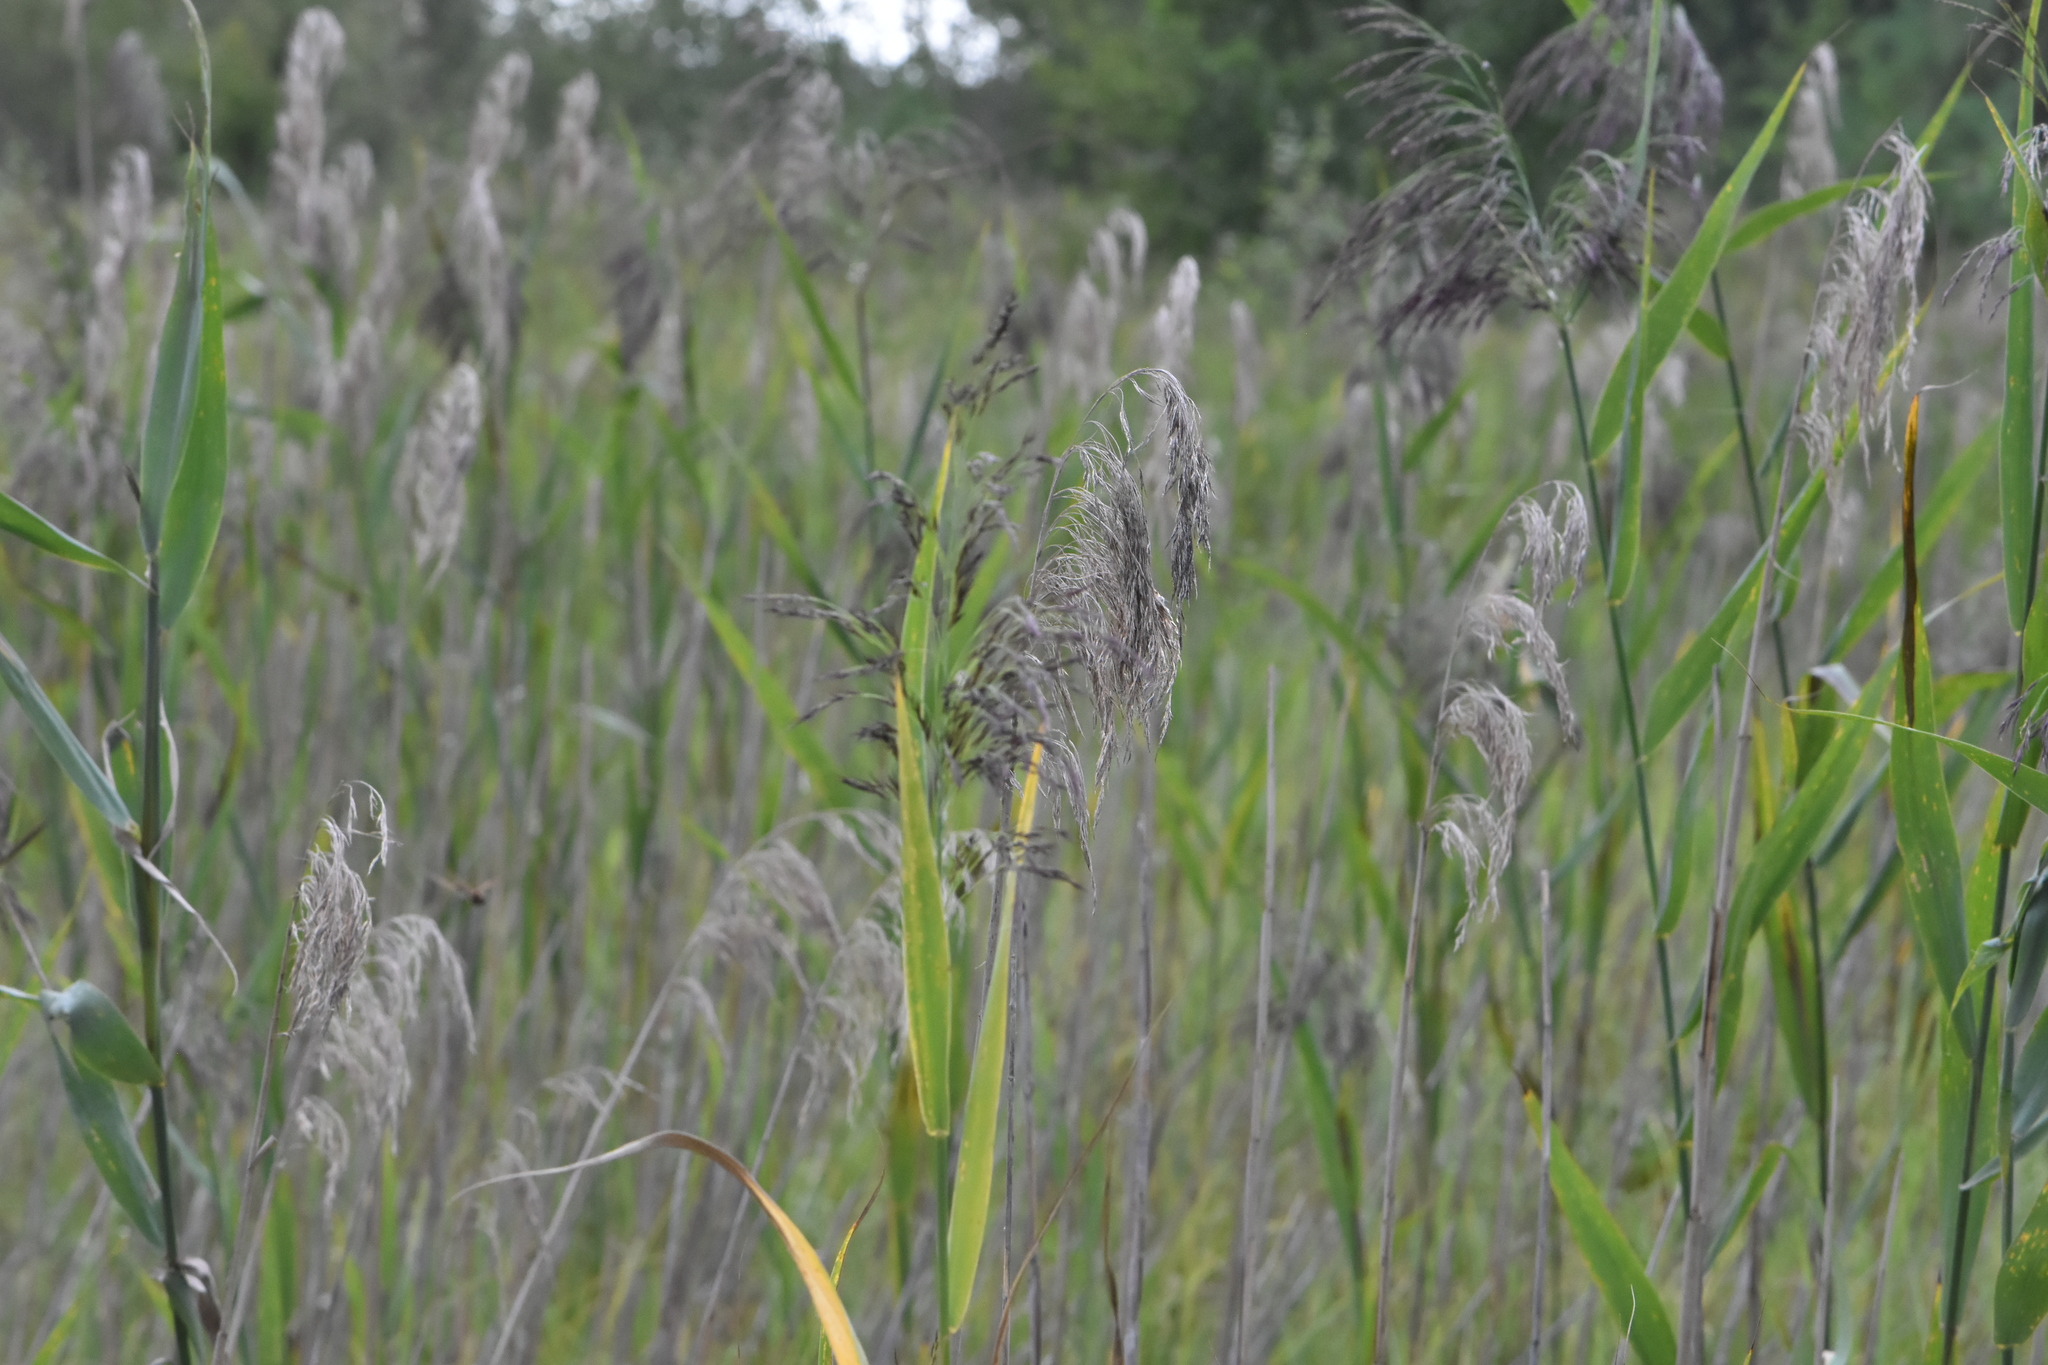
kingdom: Plantae
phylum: Tracheophyta
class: Liliopsida
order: Poales
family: Poaceae
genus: Phragmites
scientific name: Phragmites australis
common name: Common reed
